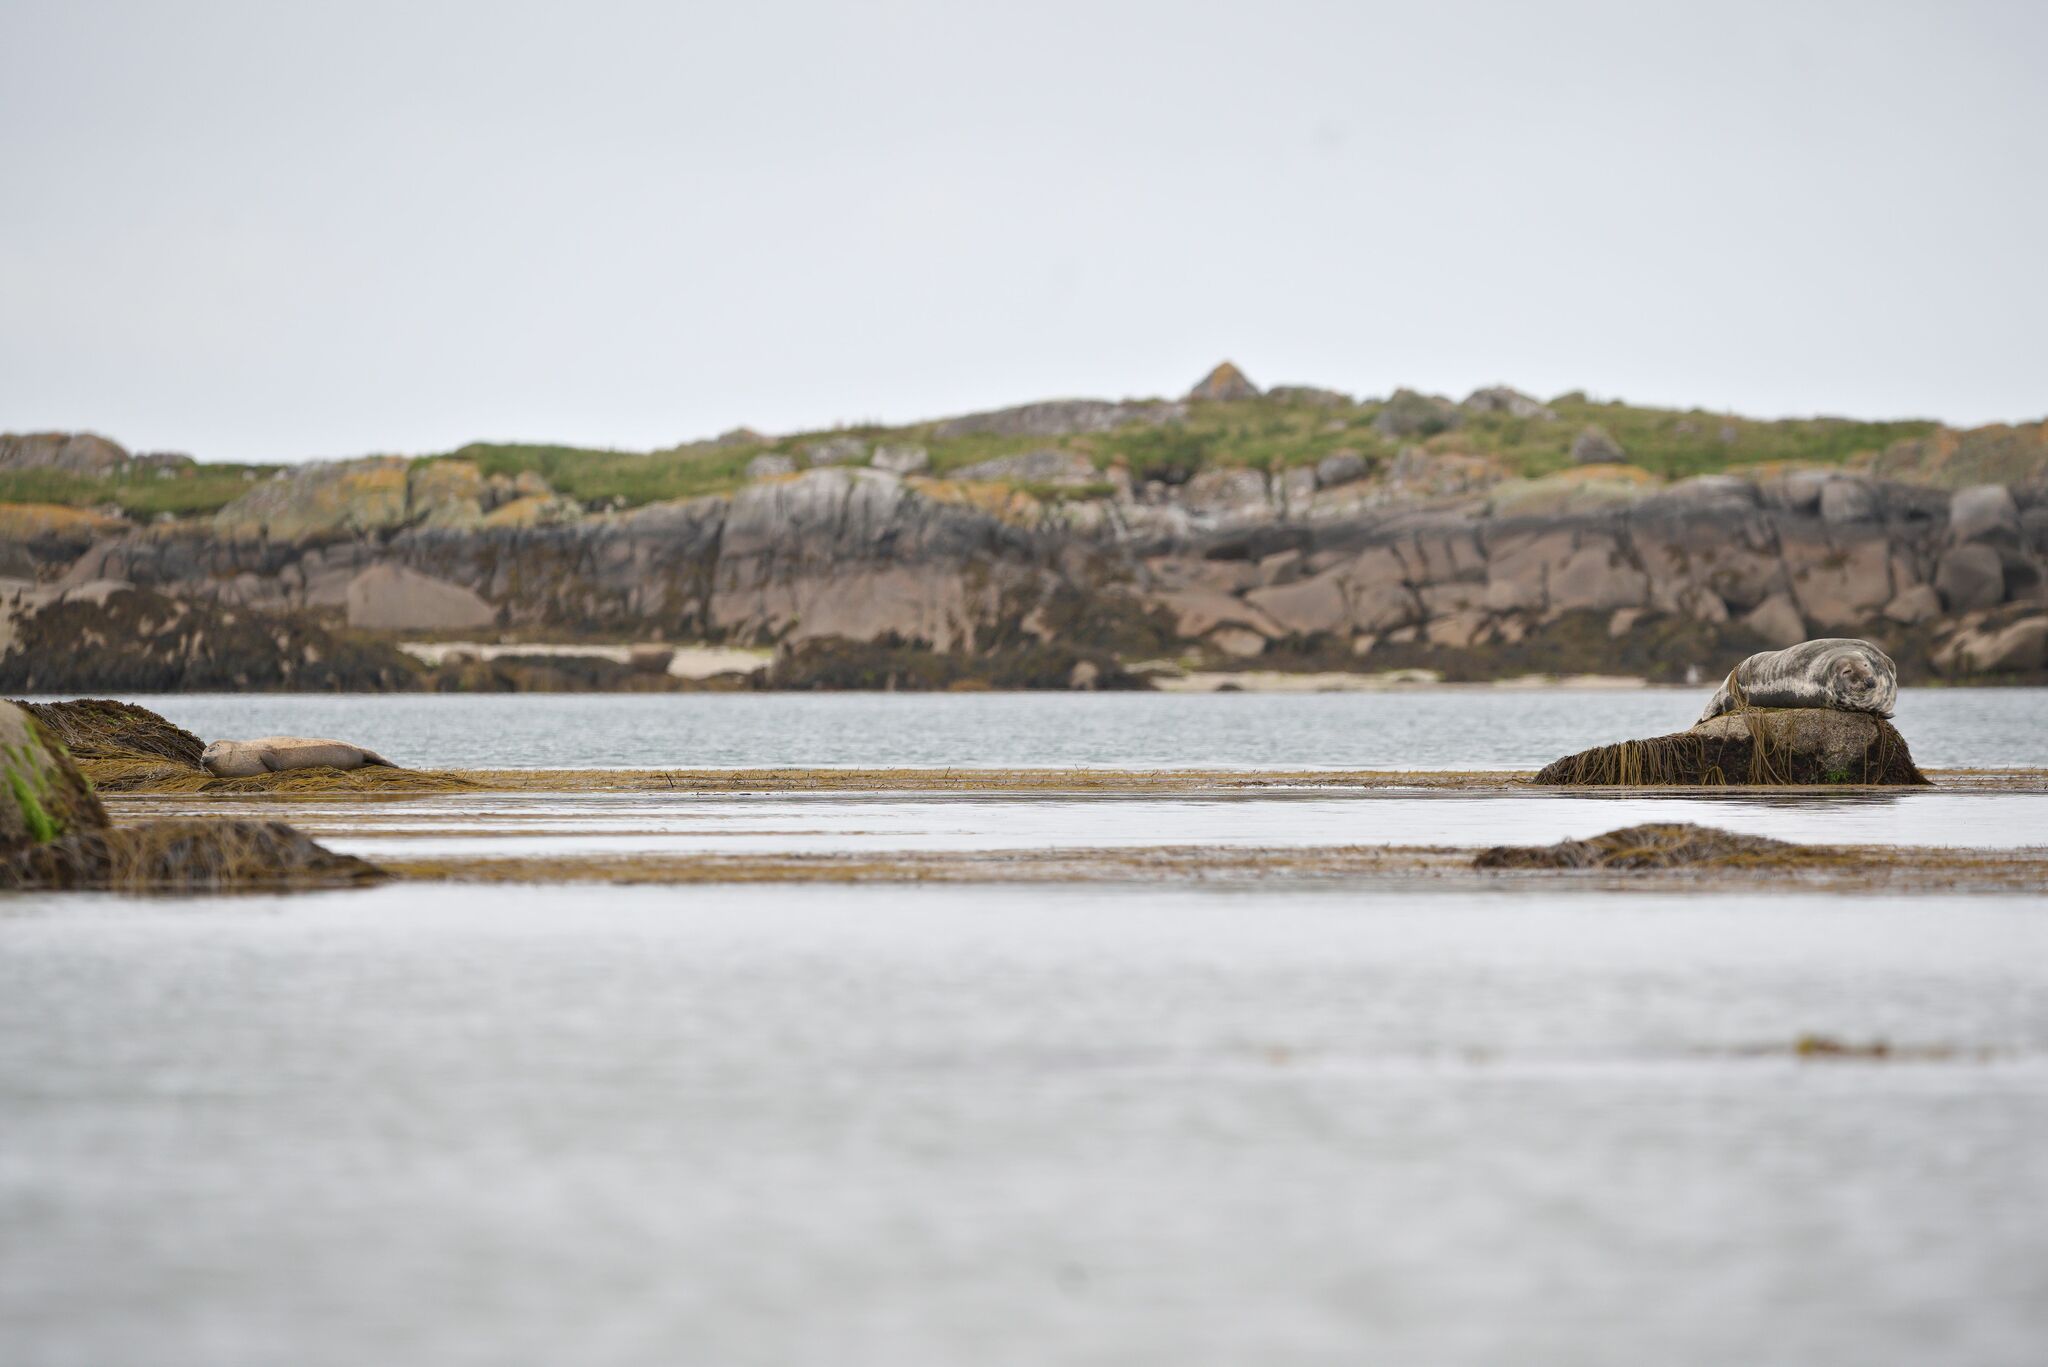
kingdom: Animalia
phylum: Chordata
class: Mammalia
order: Carnivora
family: Phocidae
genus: Halichoerus
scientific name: Halichoerus grypus
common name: Grey seal
